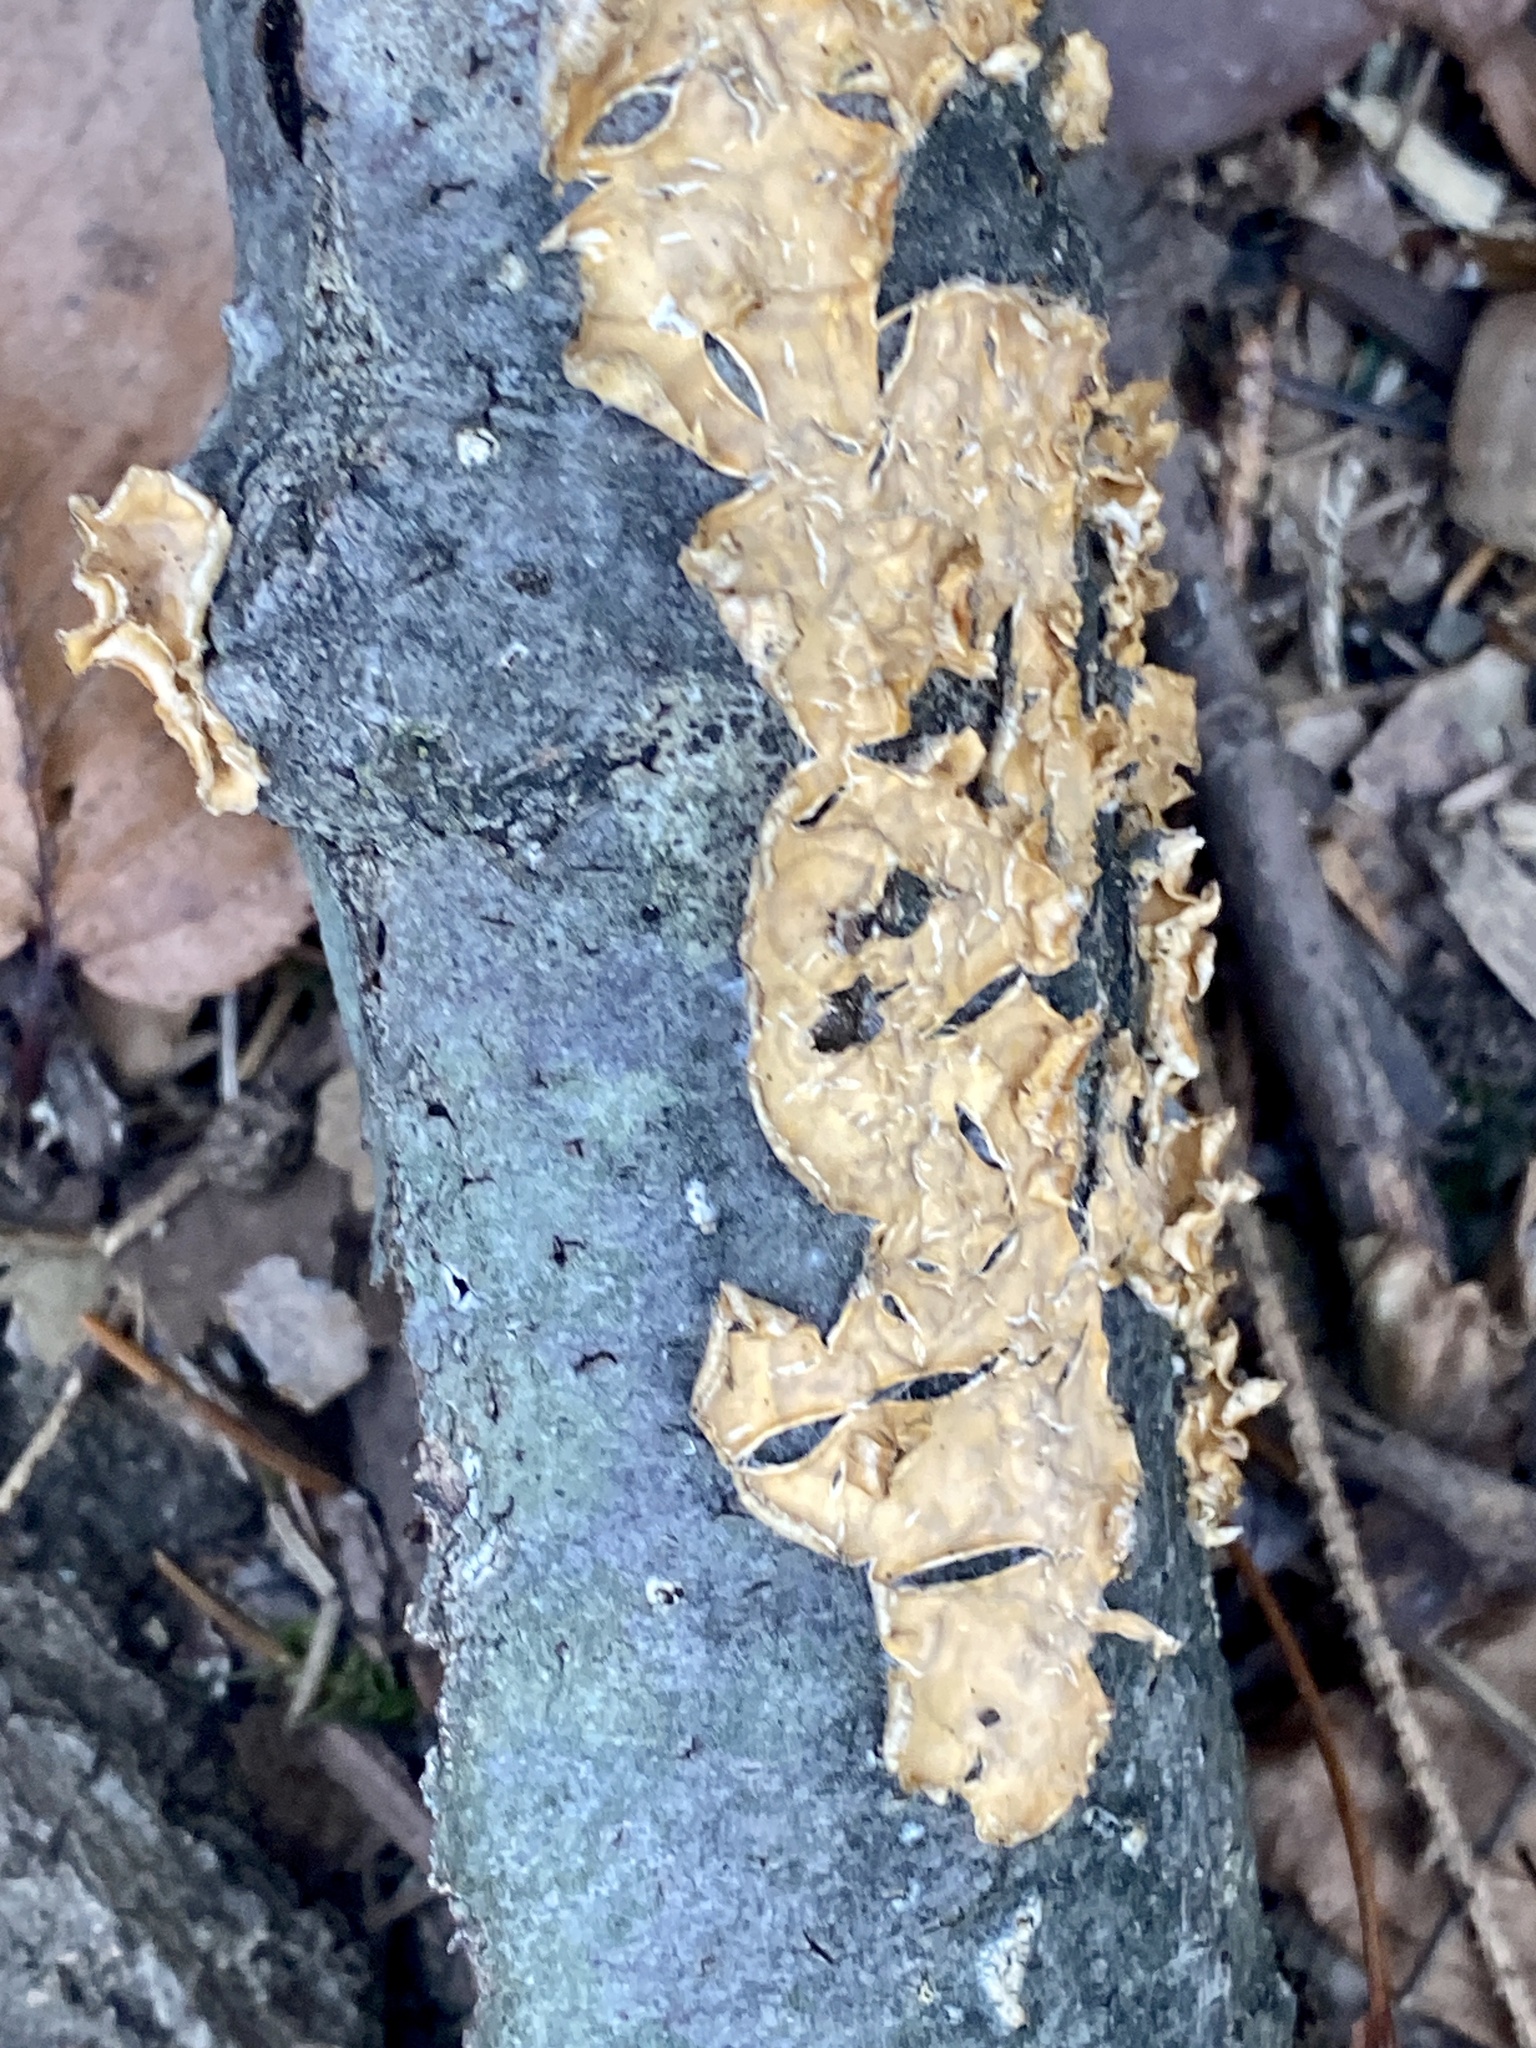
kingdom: Fungi
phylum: Basidiomycota
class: Agaricomycetes
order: Russulales
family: Stereaceae
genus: Stereum
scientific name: Stereum complicatum
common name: Crowded parchment
